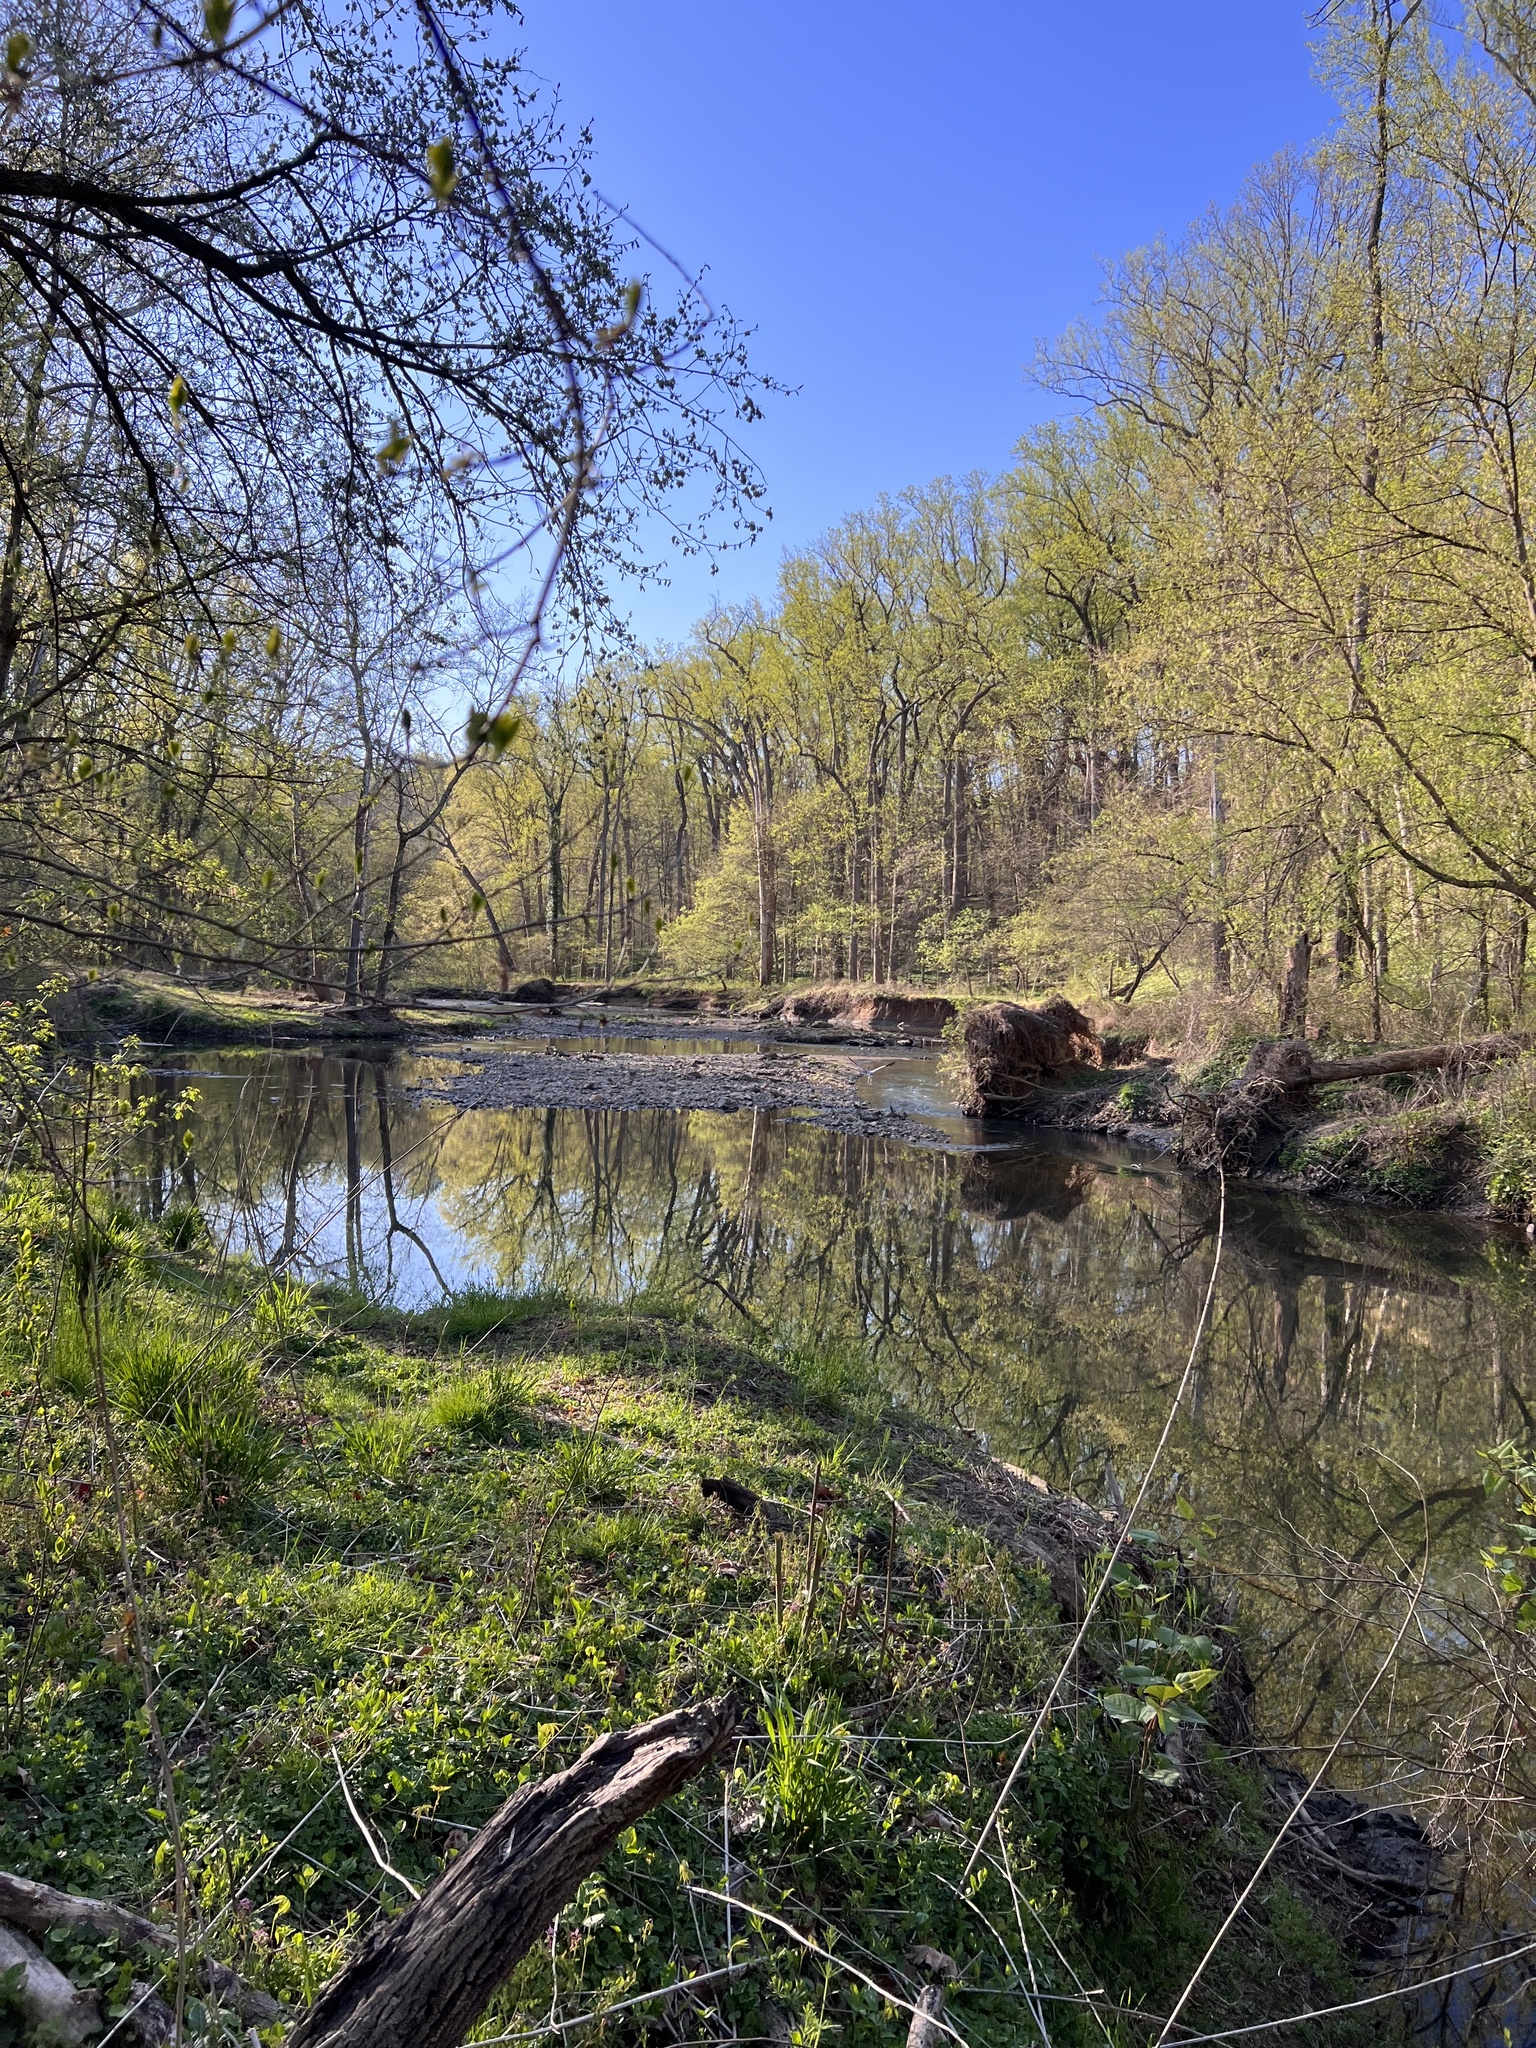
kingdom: Animalia
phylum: Chordata
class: Aves
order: Pelecaniformes
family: Ardeidae
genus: Ardea
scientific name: Ardea herodias
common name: Great blue heron
